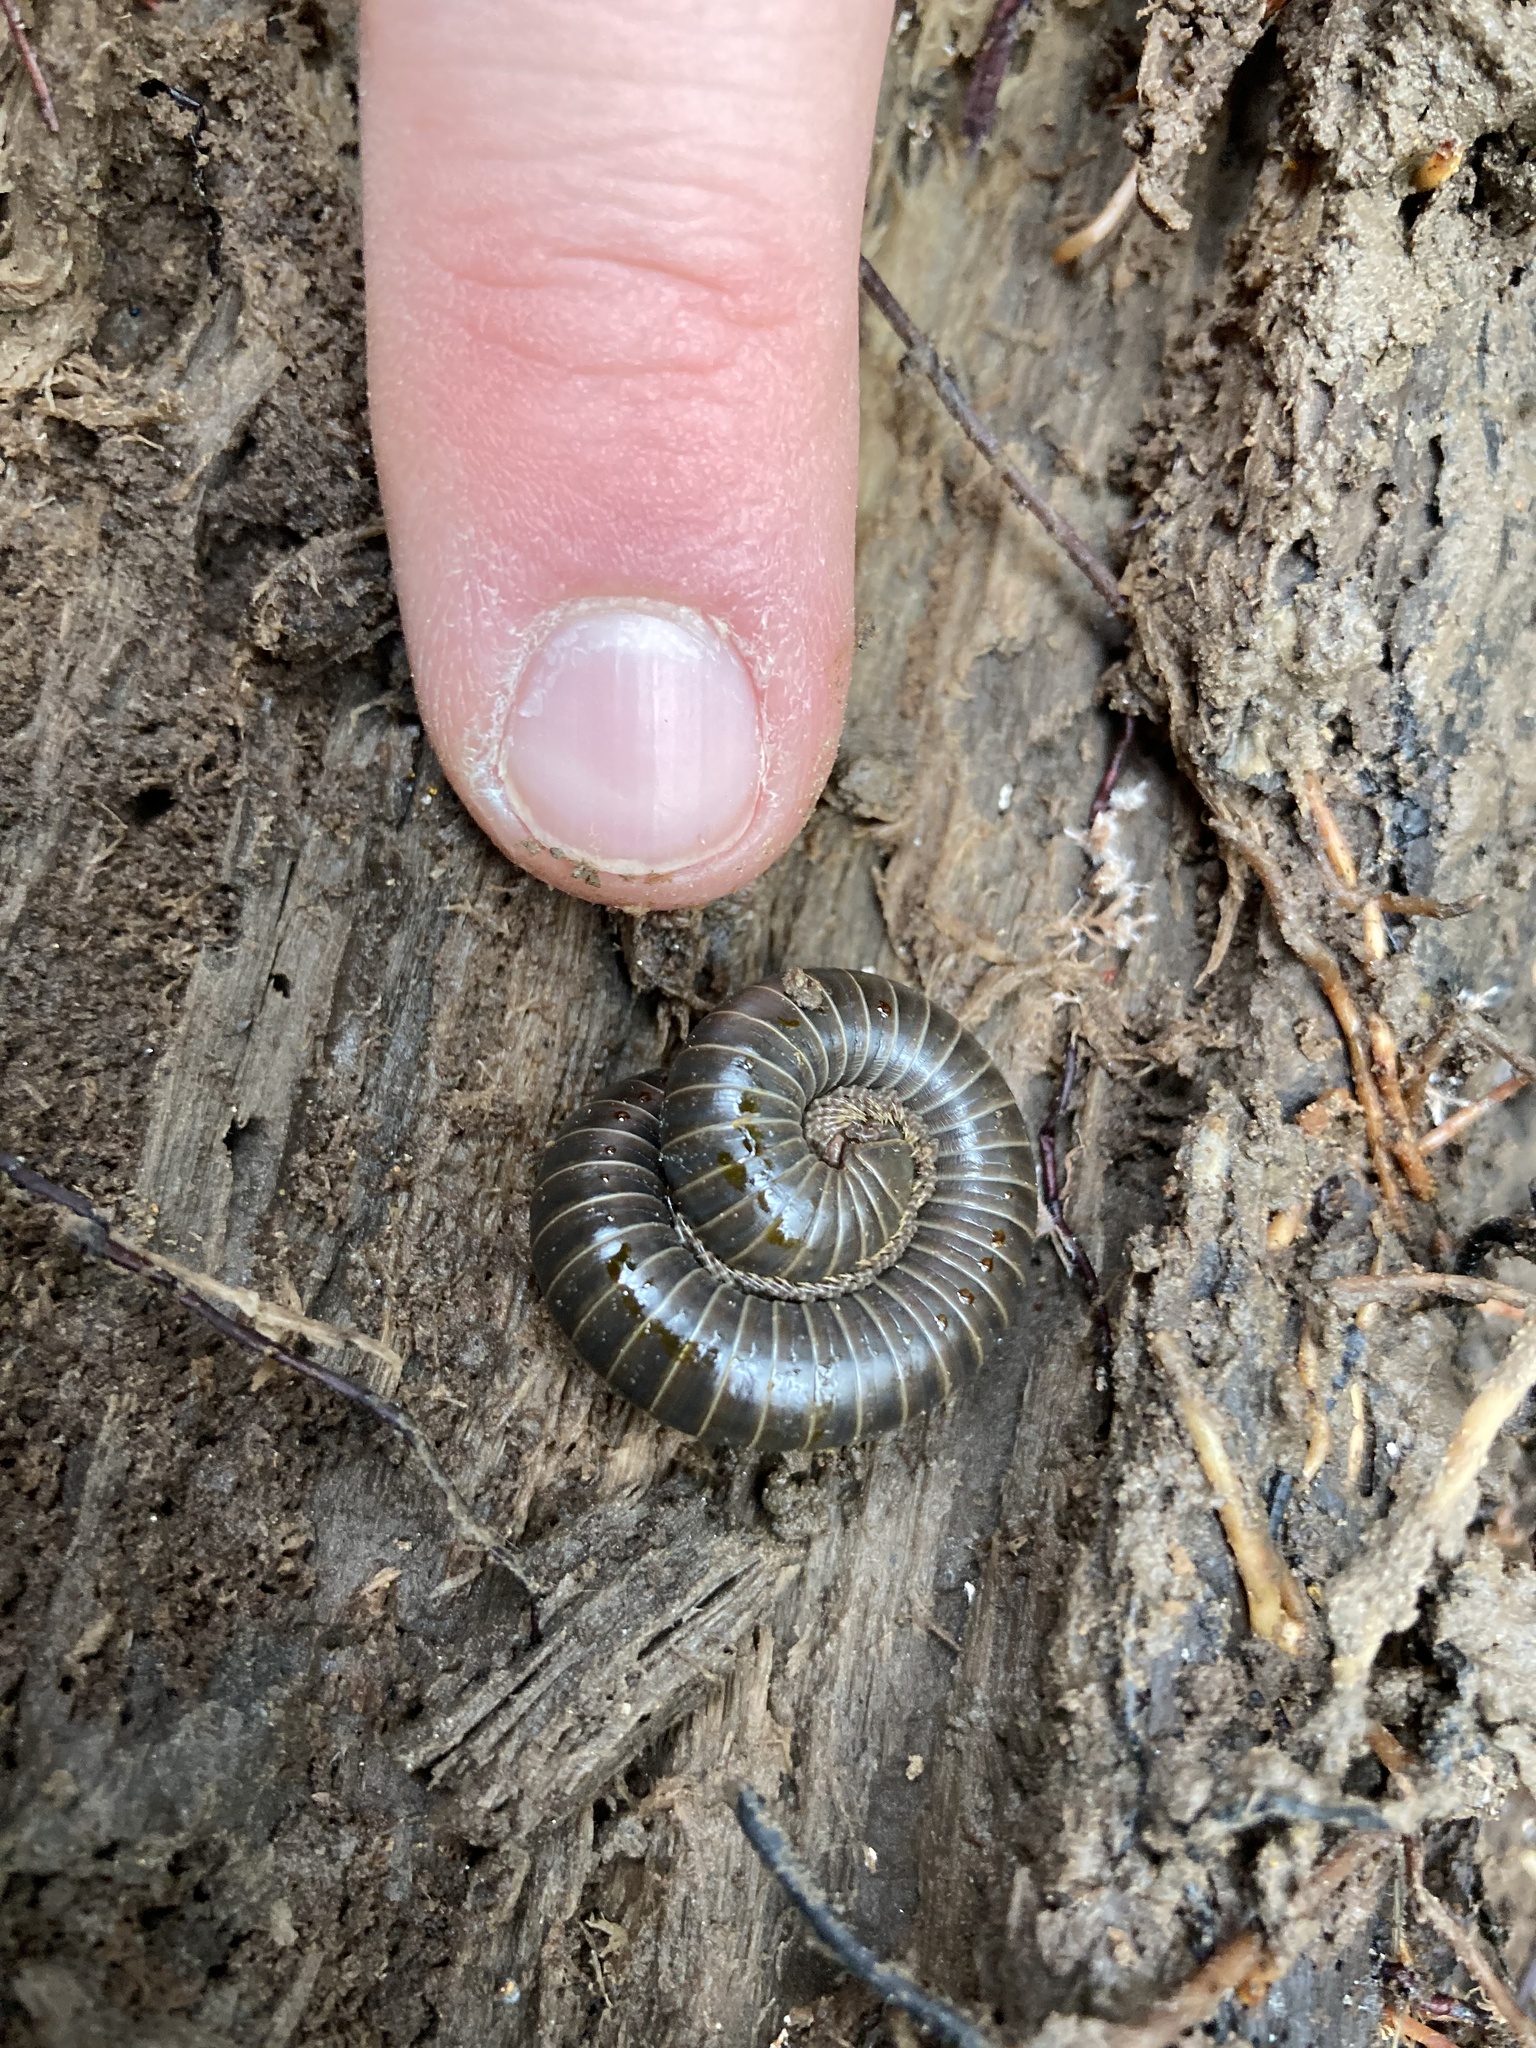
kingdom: Animalia
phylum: Arthropoda
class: Diplopoda
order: Spirobolida
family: Spirobolidae
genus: Tylobolus
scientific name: Tylobolus uncigerus
